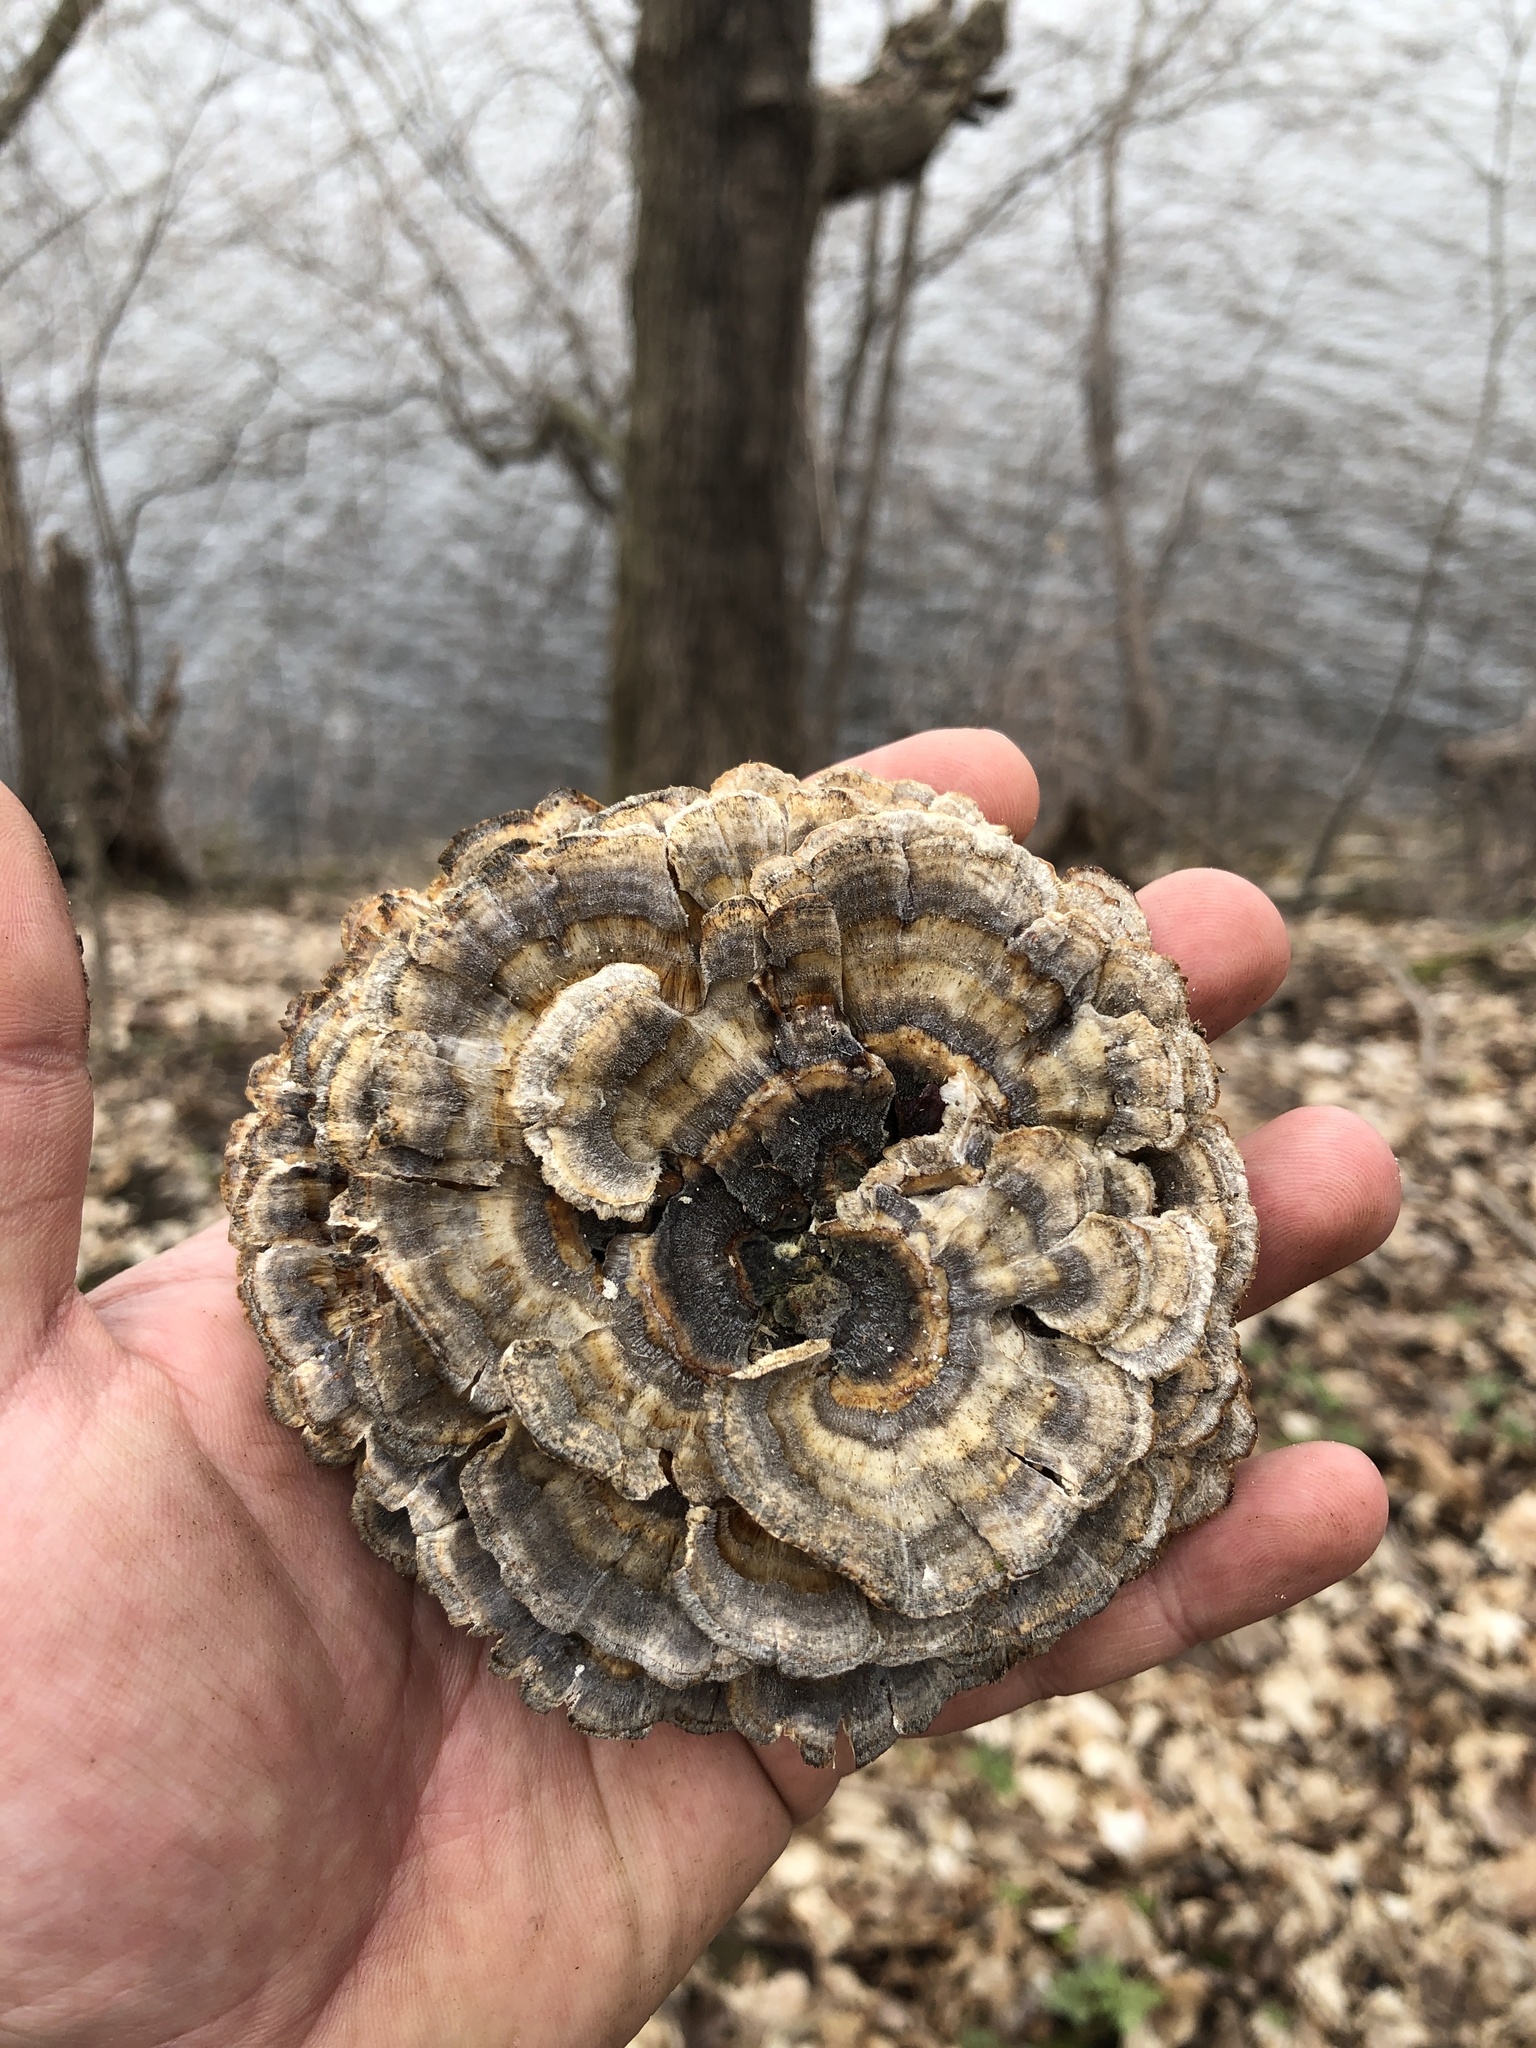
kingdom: Fungi
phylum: Basidiomycota
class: Agaricomycetes
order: Polyporales
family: Polyporaceae
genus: Trametes
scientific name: Trametes versicolor
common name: Turkeytail
